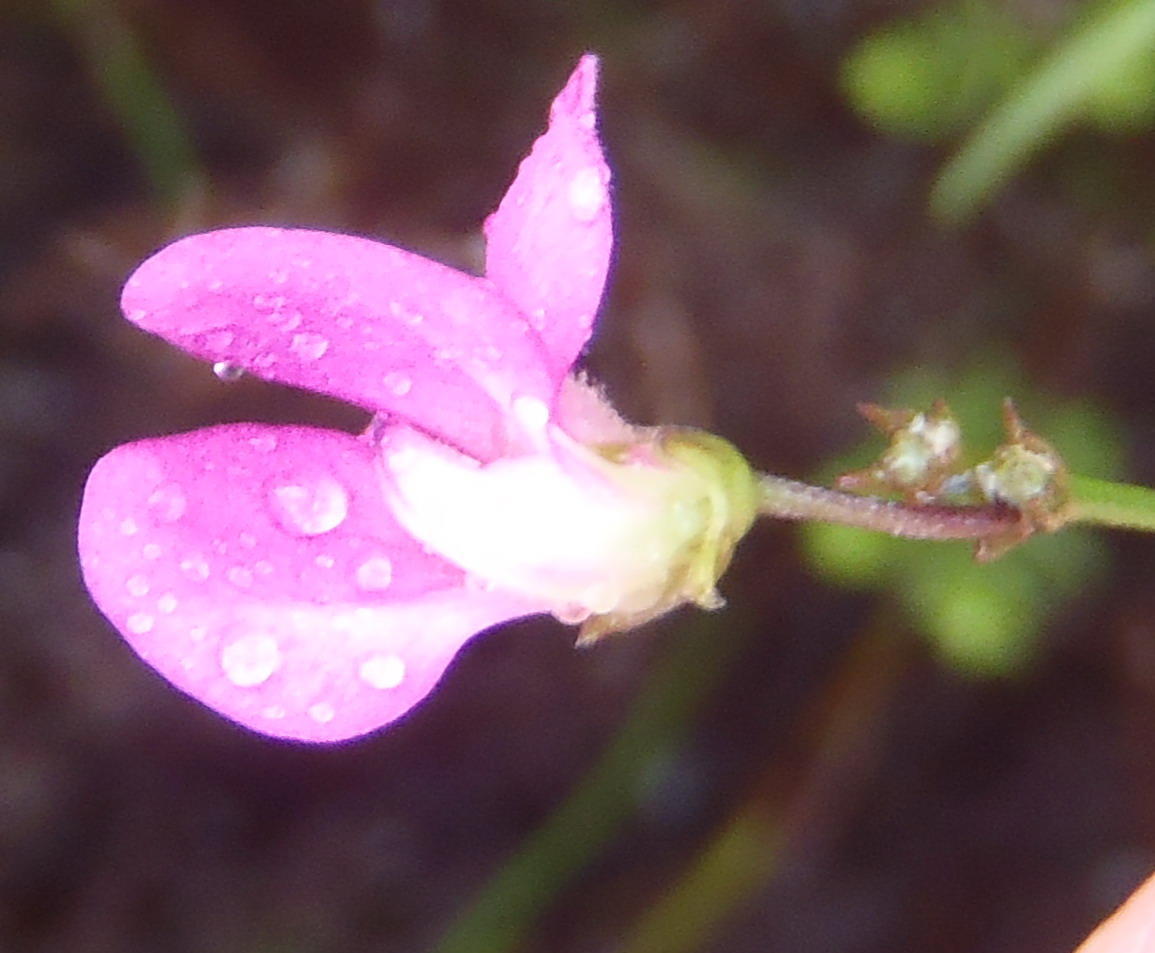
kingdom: Plantae
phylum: Tracheophyta
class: Magnoliopsida
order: Fabales
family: Fabaceae
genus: Tephrosia
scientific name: Tephrosia capensis
